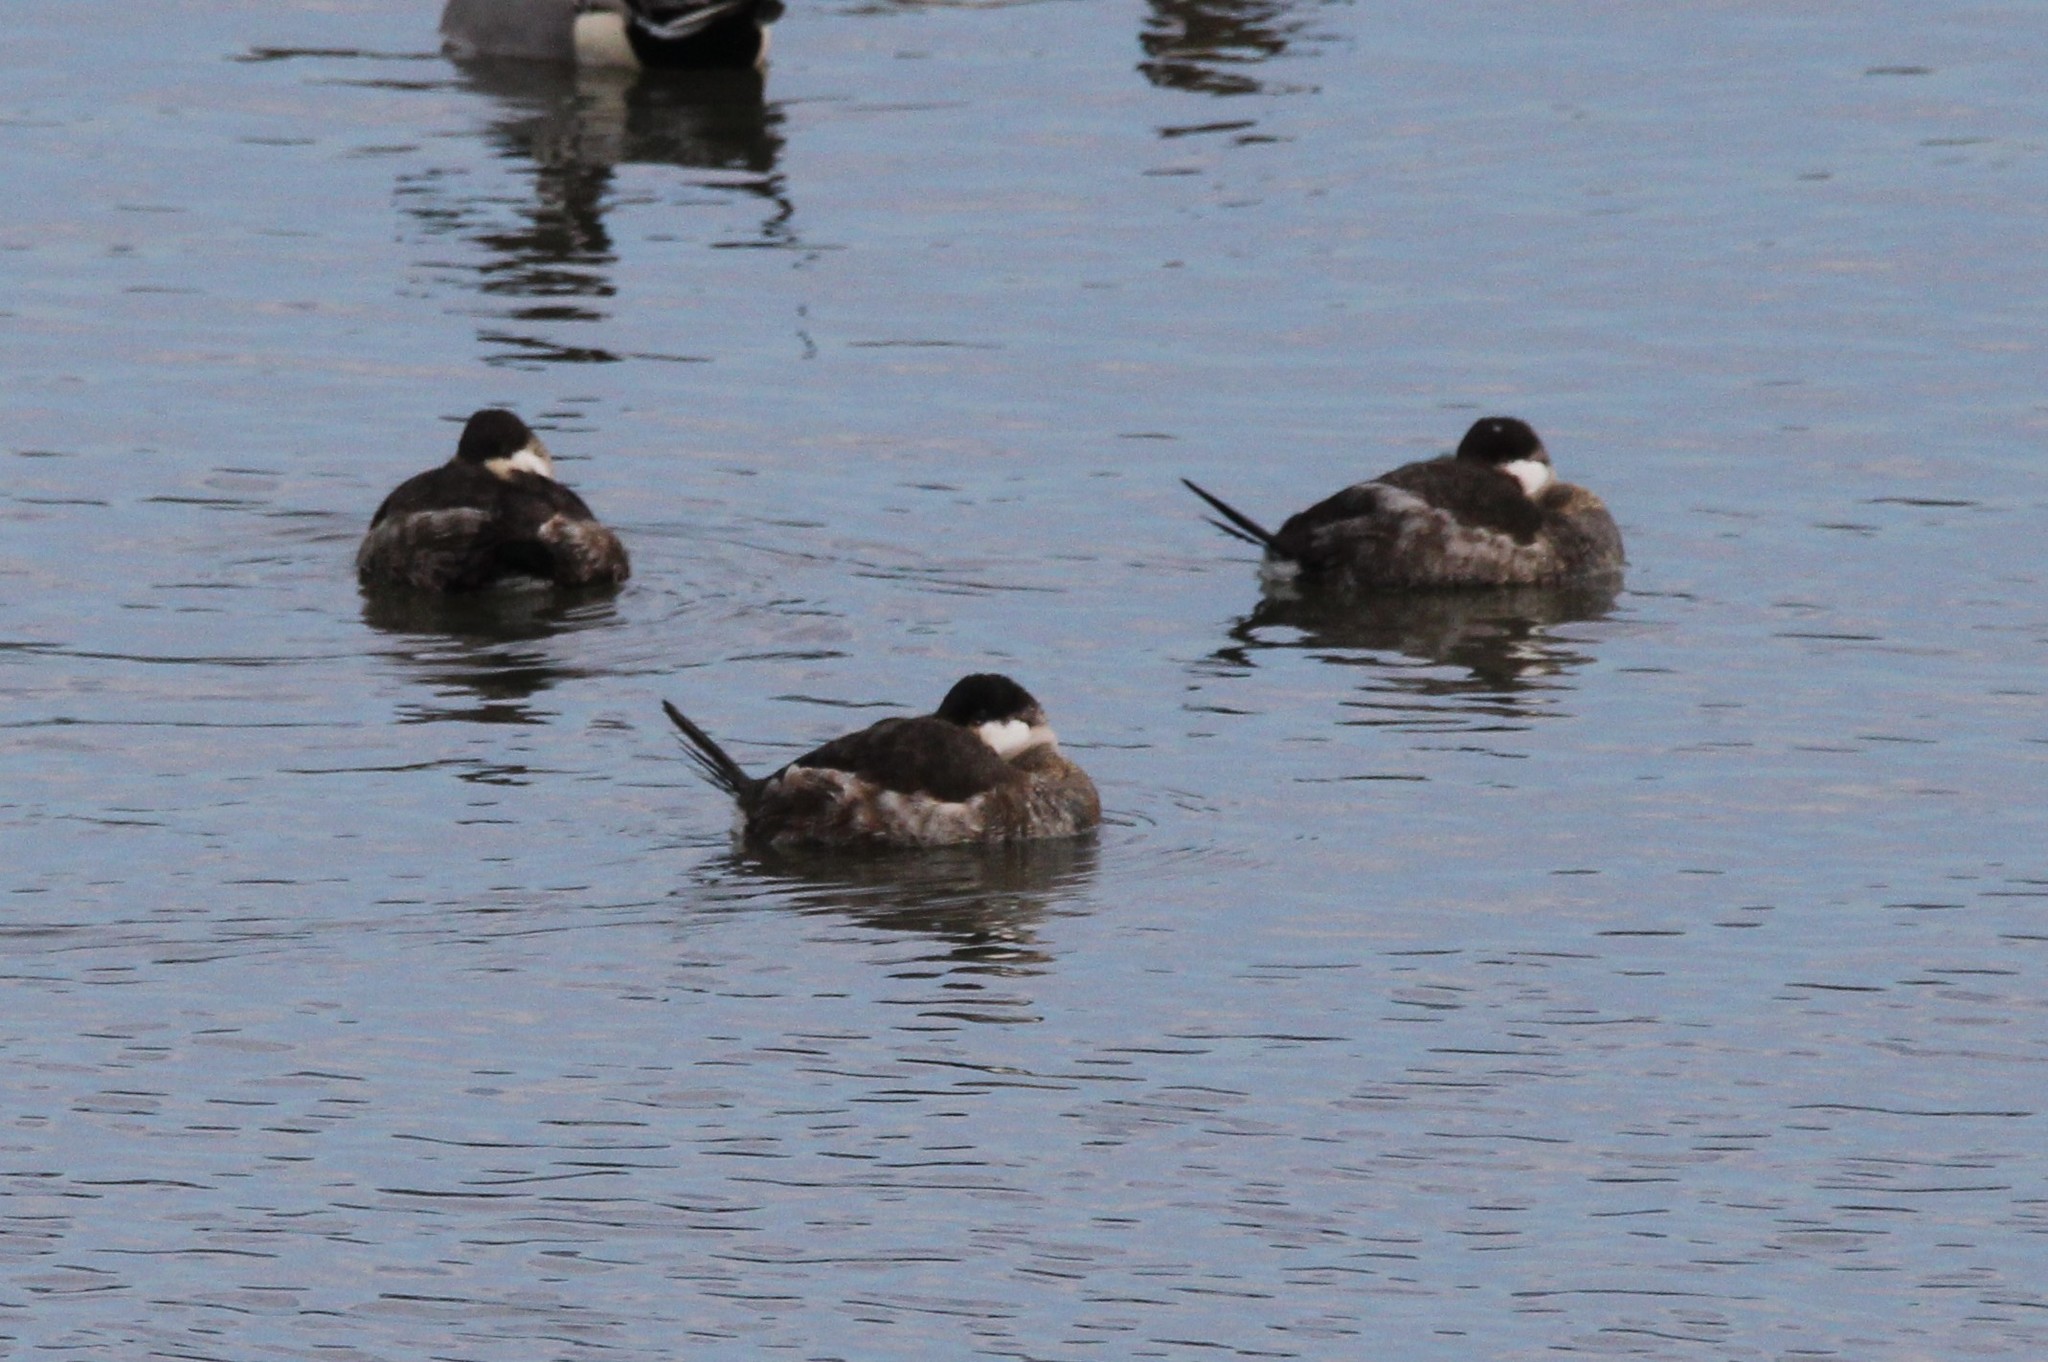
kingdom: Animalia
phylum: Chordata
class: Aves
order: Anseriformes
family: Anatidae
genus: Oxyura
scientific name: Oxyura jamaicensis
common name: Ruddy duck
